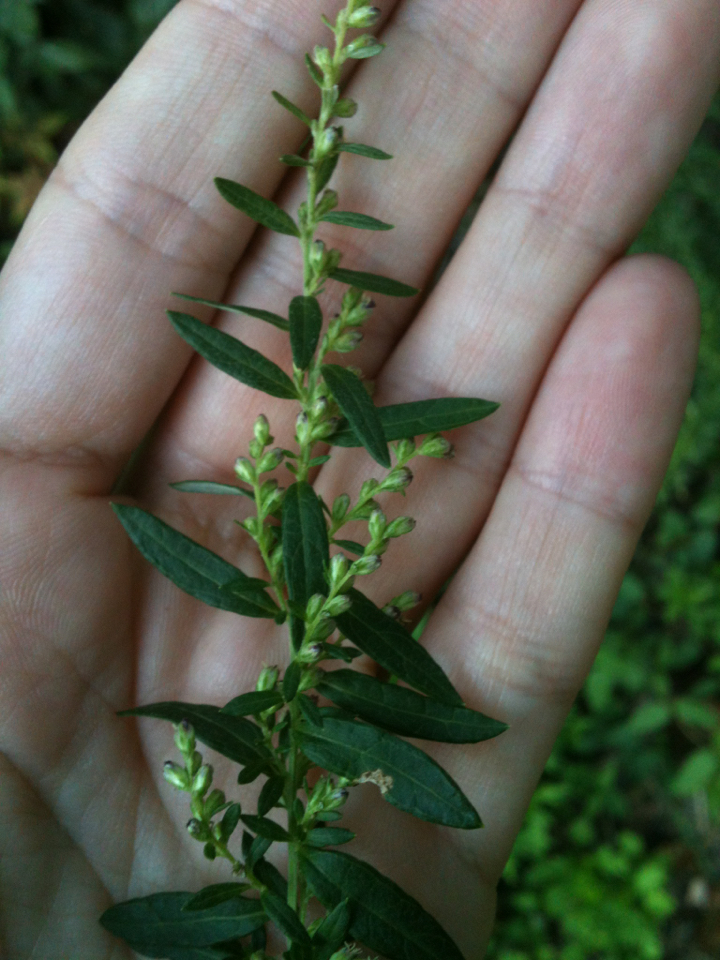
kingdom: Plantae
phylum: Tracheophyta
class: Magnoliopsida
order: Asterales
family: Asteraceae
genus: Artemisia
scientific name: Artemisia vulgaris
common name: Mugwort
